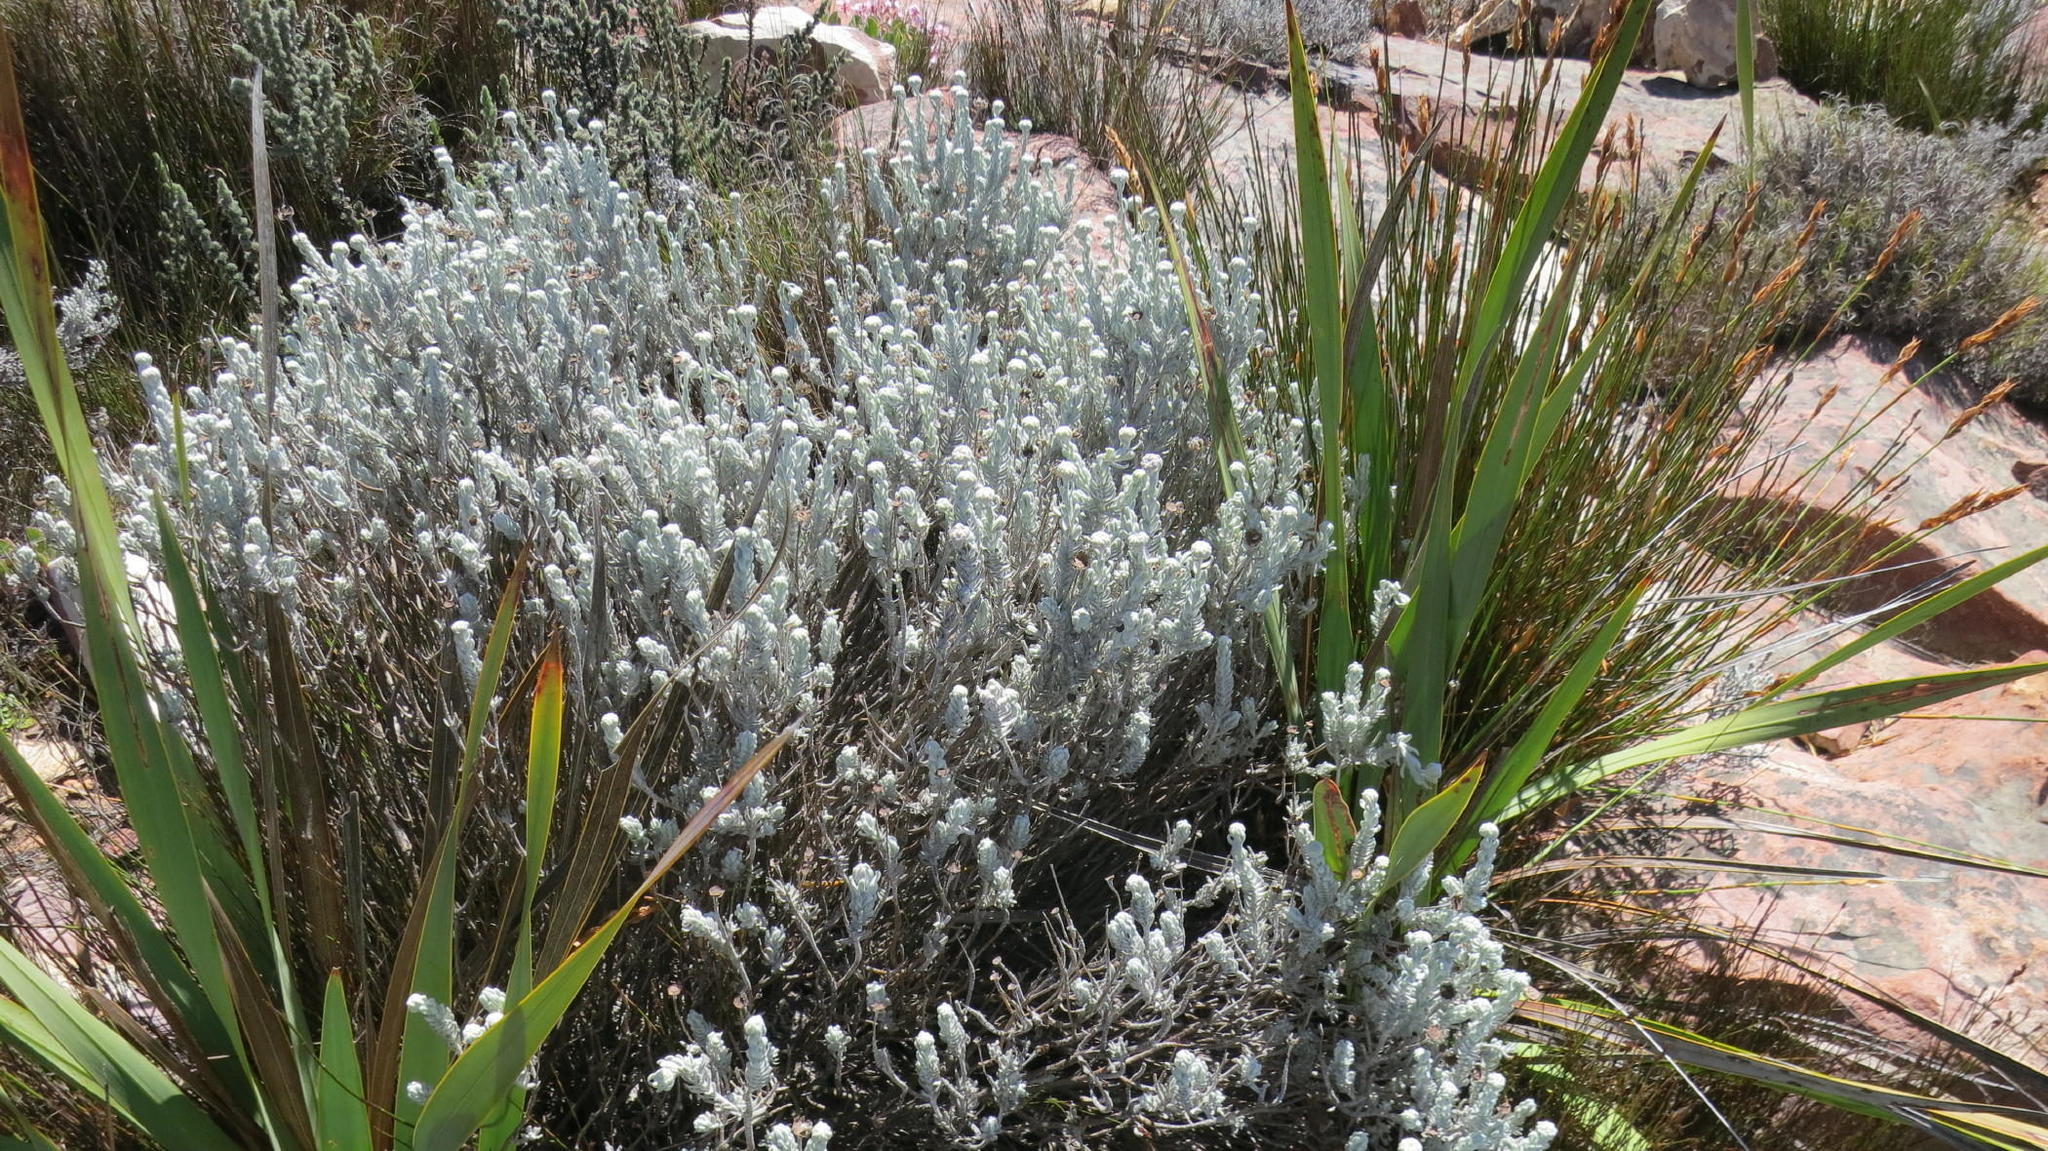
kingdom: Plantae
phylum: Tracheophyta
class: Magnoliopsida
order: Asterales
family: Asteraceae
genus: Athanasia
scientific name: Athanasia pachycephala
